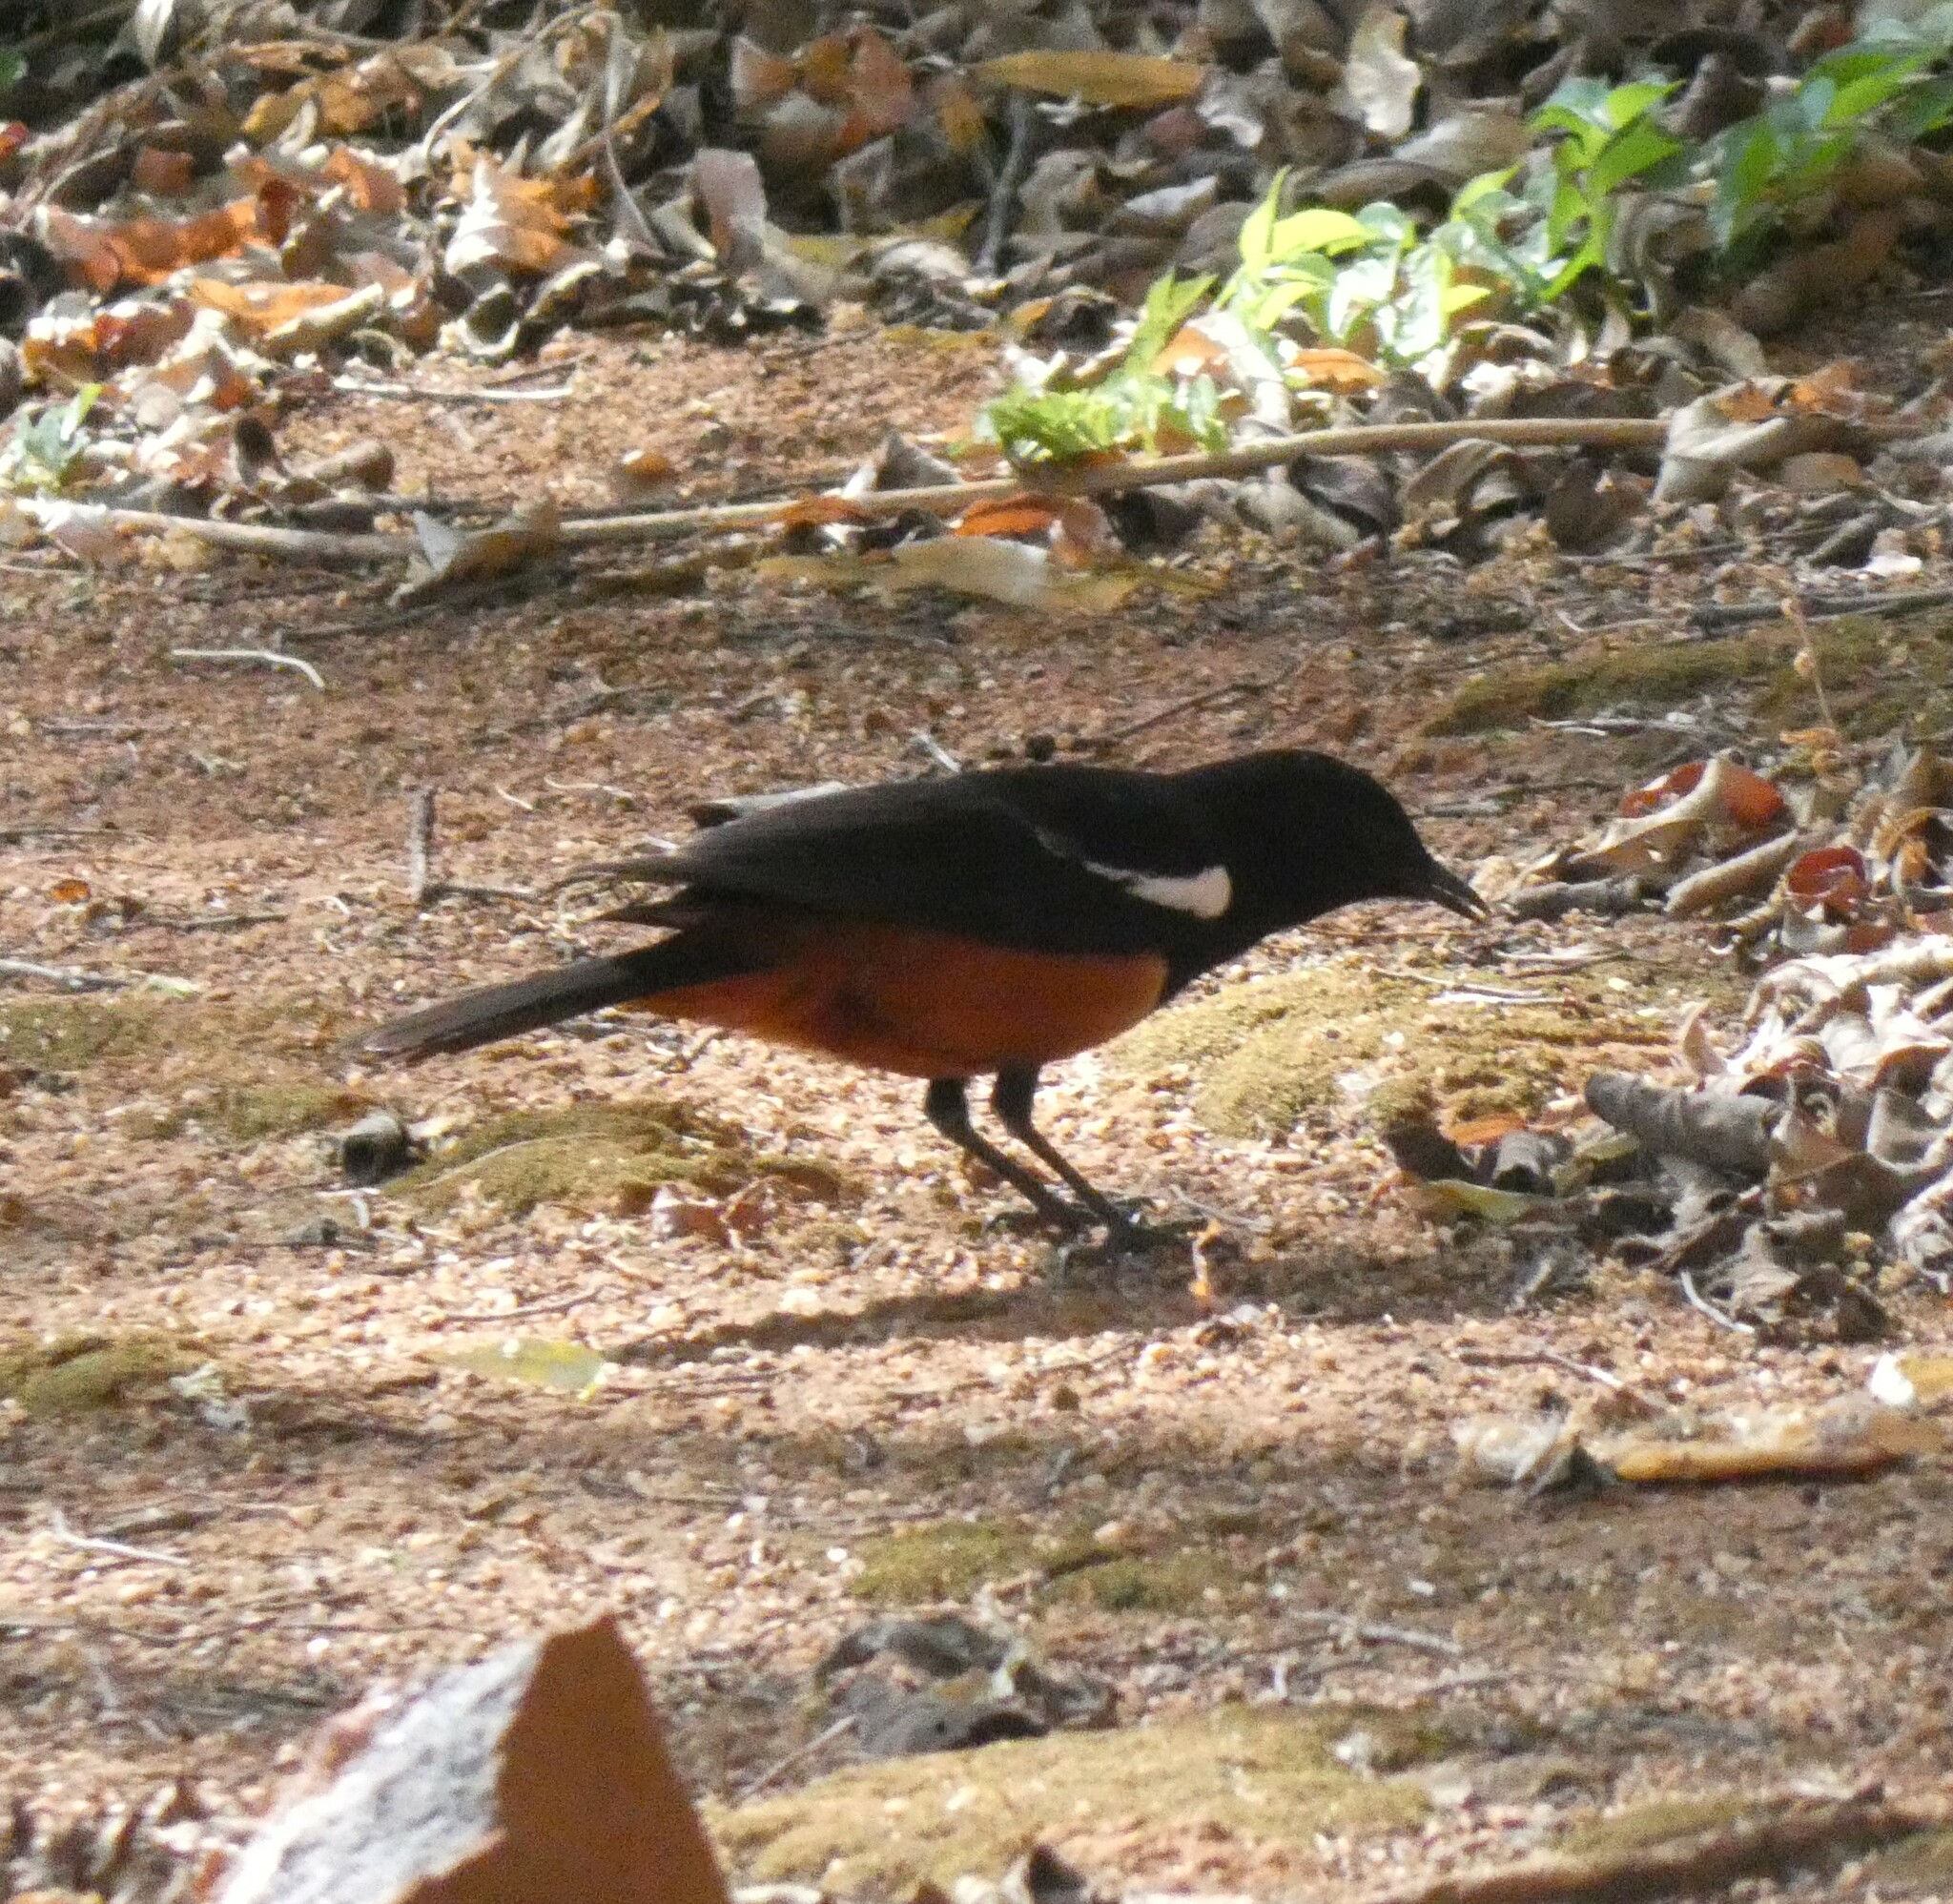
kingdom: Animalia
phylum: Chordata
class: Aves
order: Passeriformes
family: Muscicapidae
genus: Thamnolaea
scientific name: Thamnolaea cinnamomeiventris
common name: Mocking cliff chat
